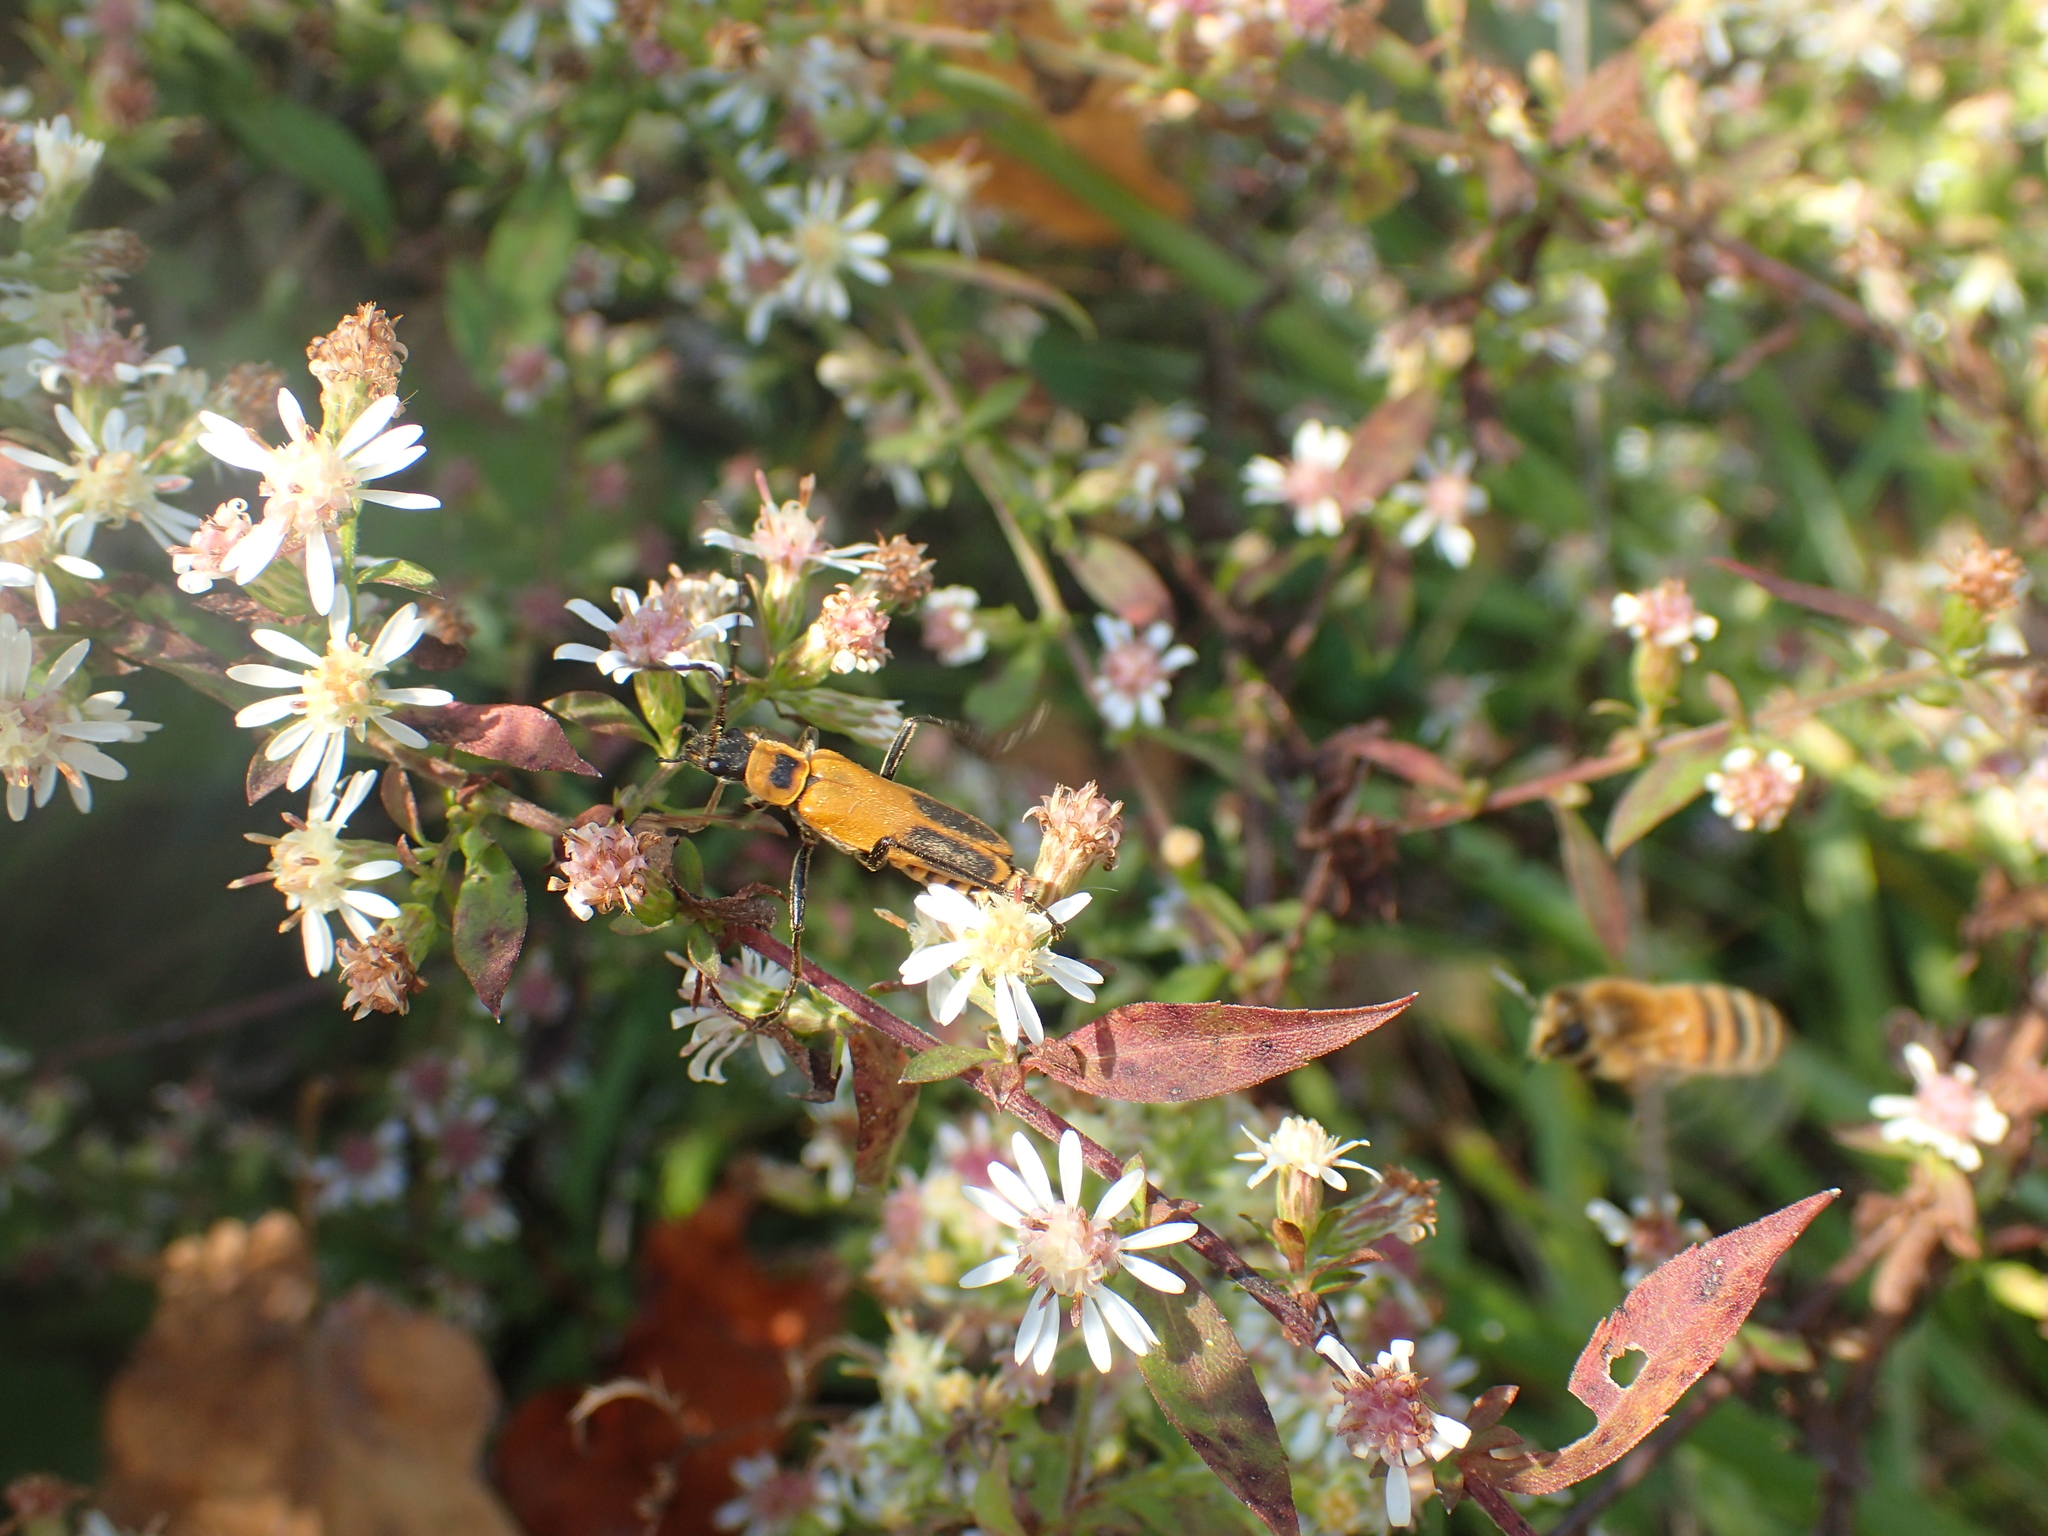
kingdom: Animalia
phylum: Arthropoda
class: Insecta
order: Coleoptera
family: Cantharidae
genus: Chauliognathus
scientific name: Chauliognathus pensylvanicus
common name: Goldenrod soldier beetle
